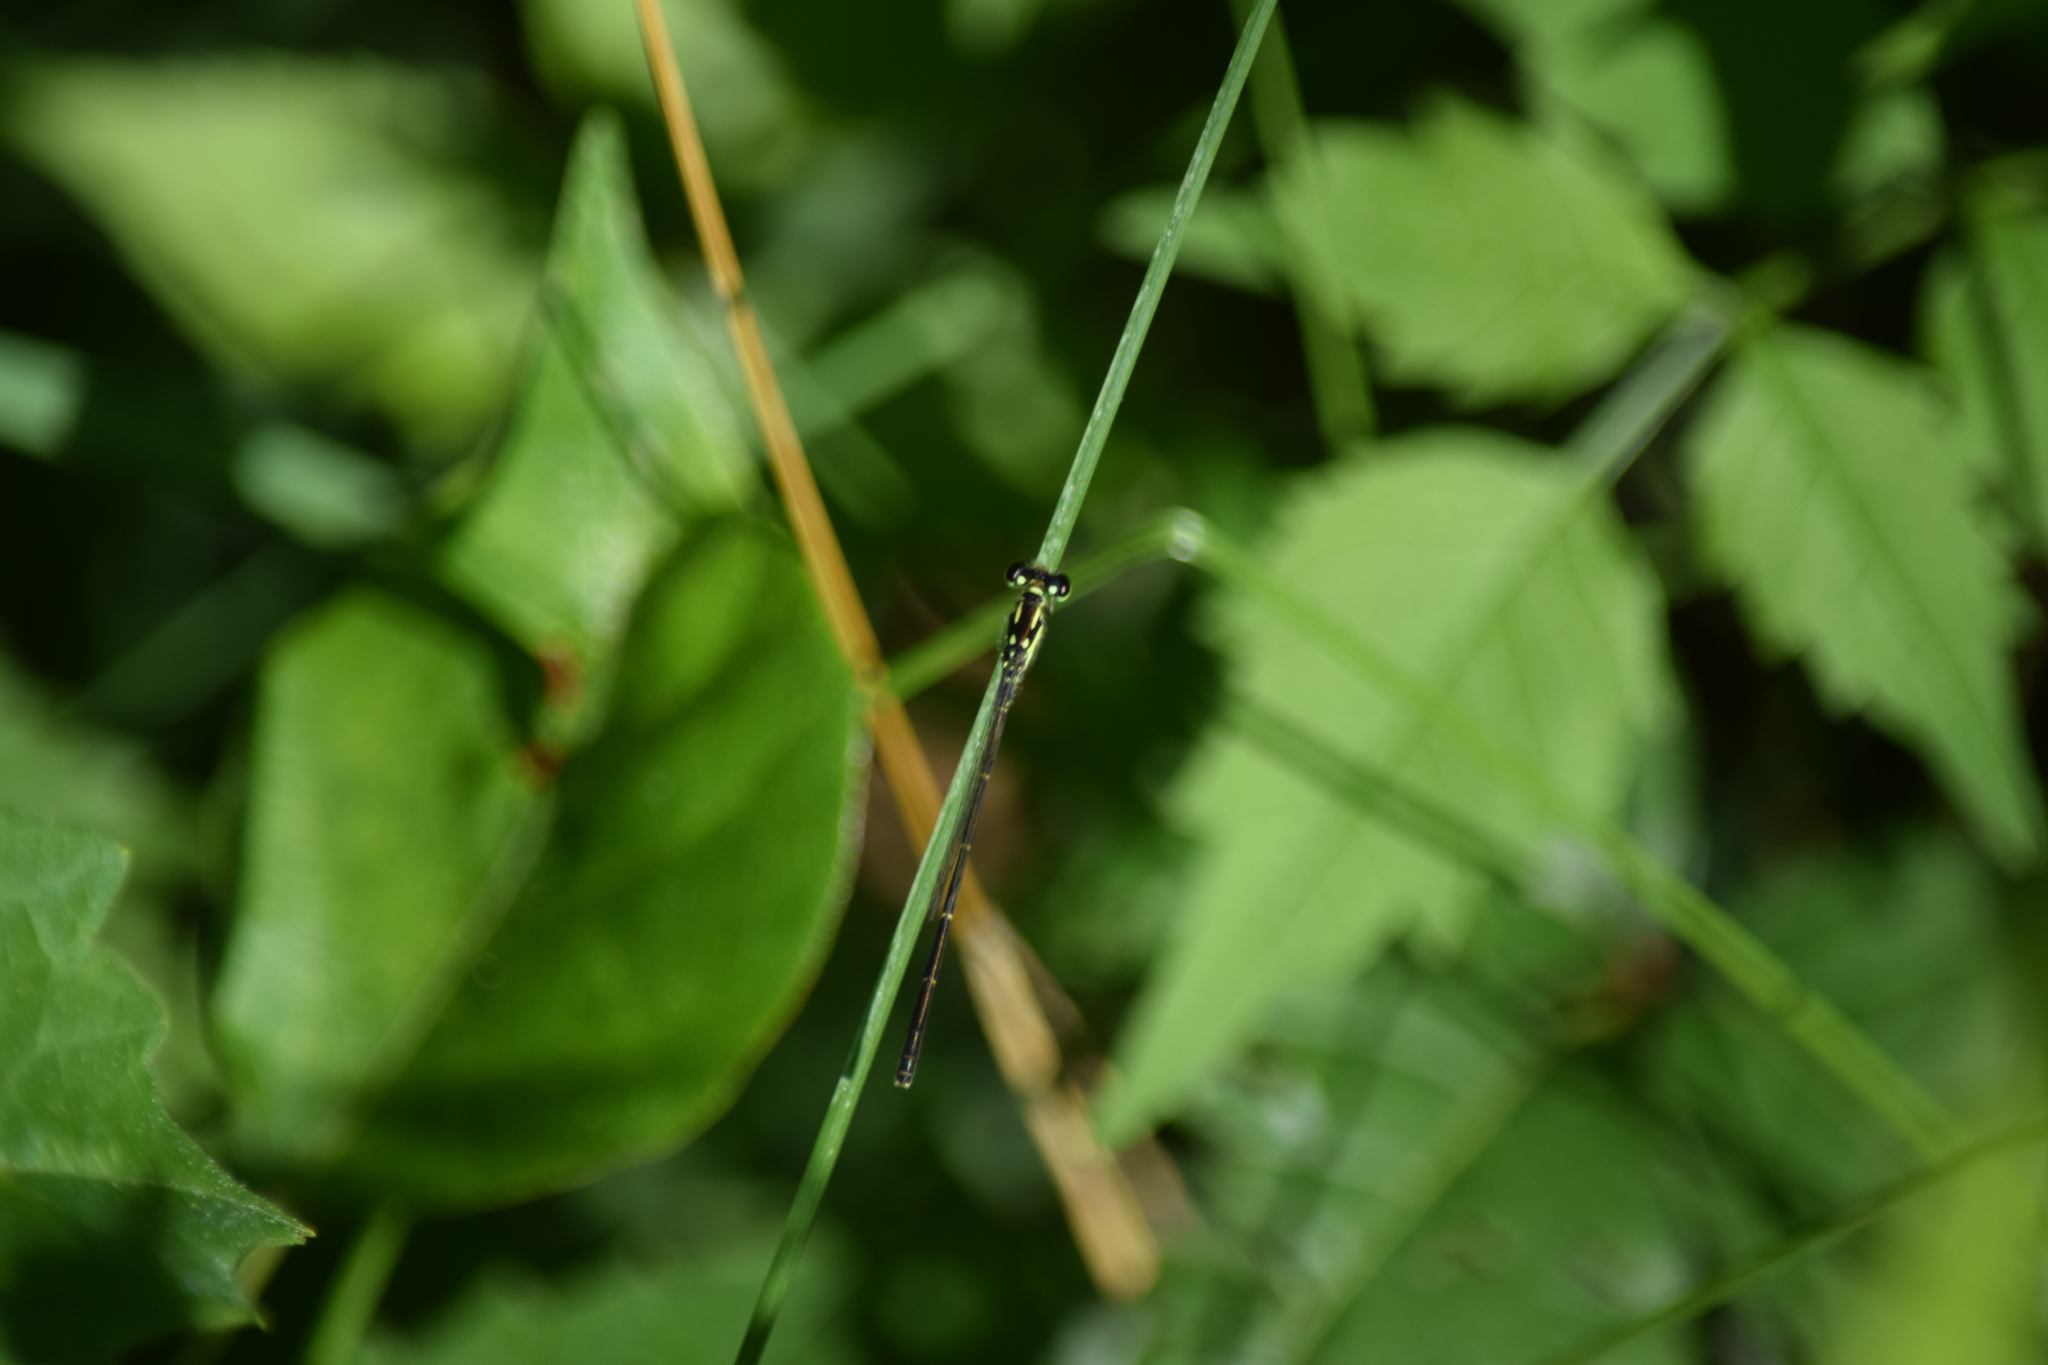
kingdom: Animalia
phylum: Arthropoda
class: Insecta
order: Odonata
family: Coenagrionidae
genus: Ischnura
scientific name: Ischnura posita
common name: Fragile forktail
